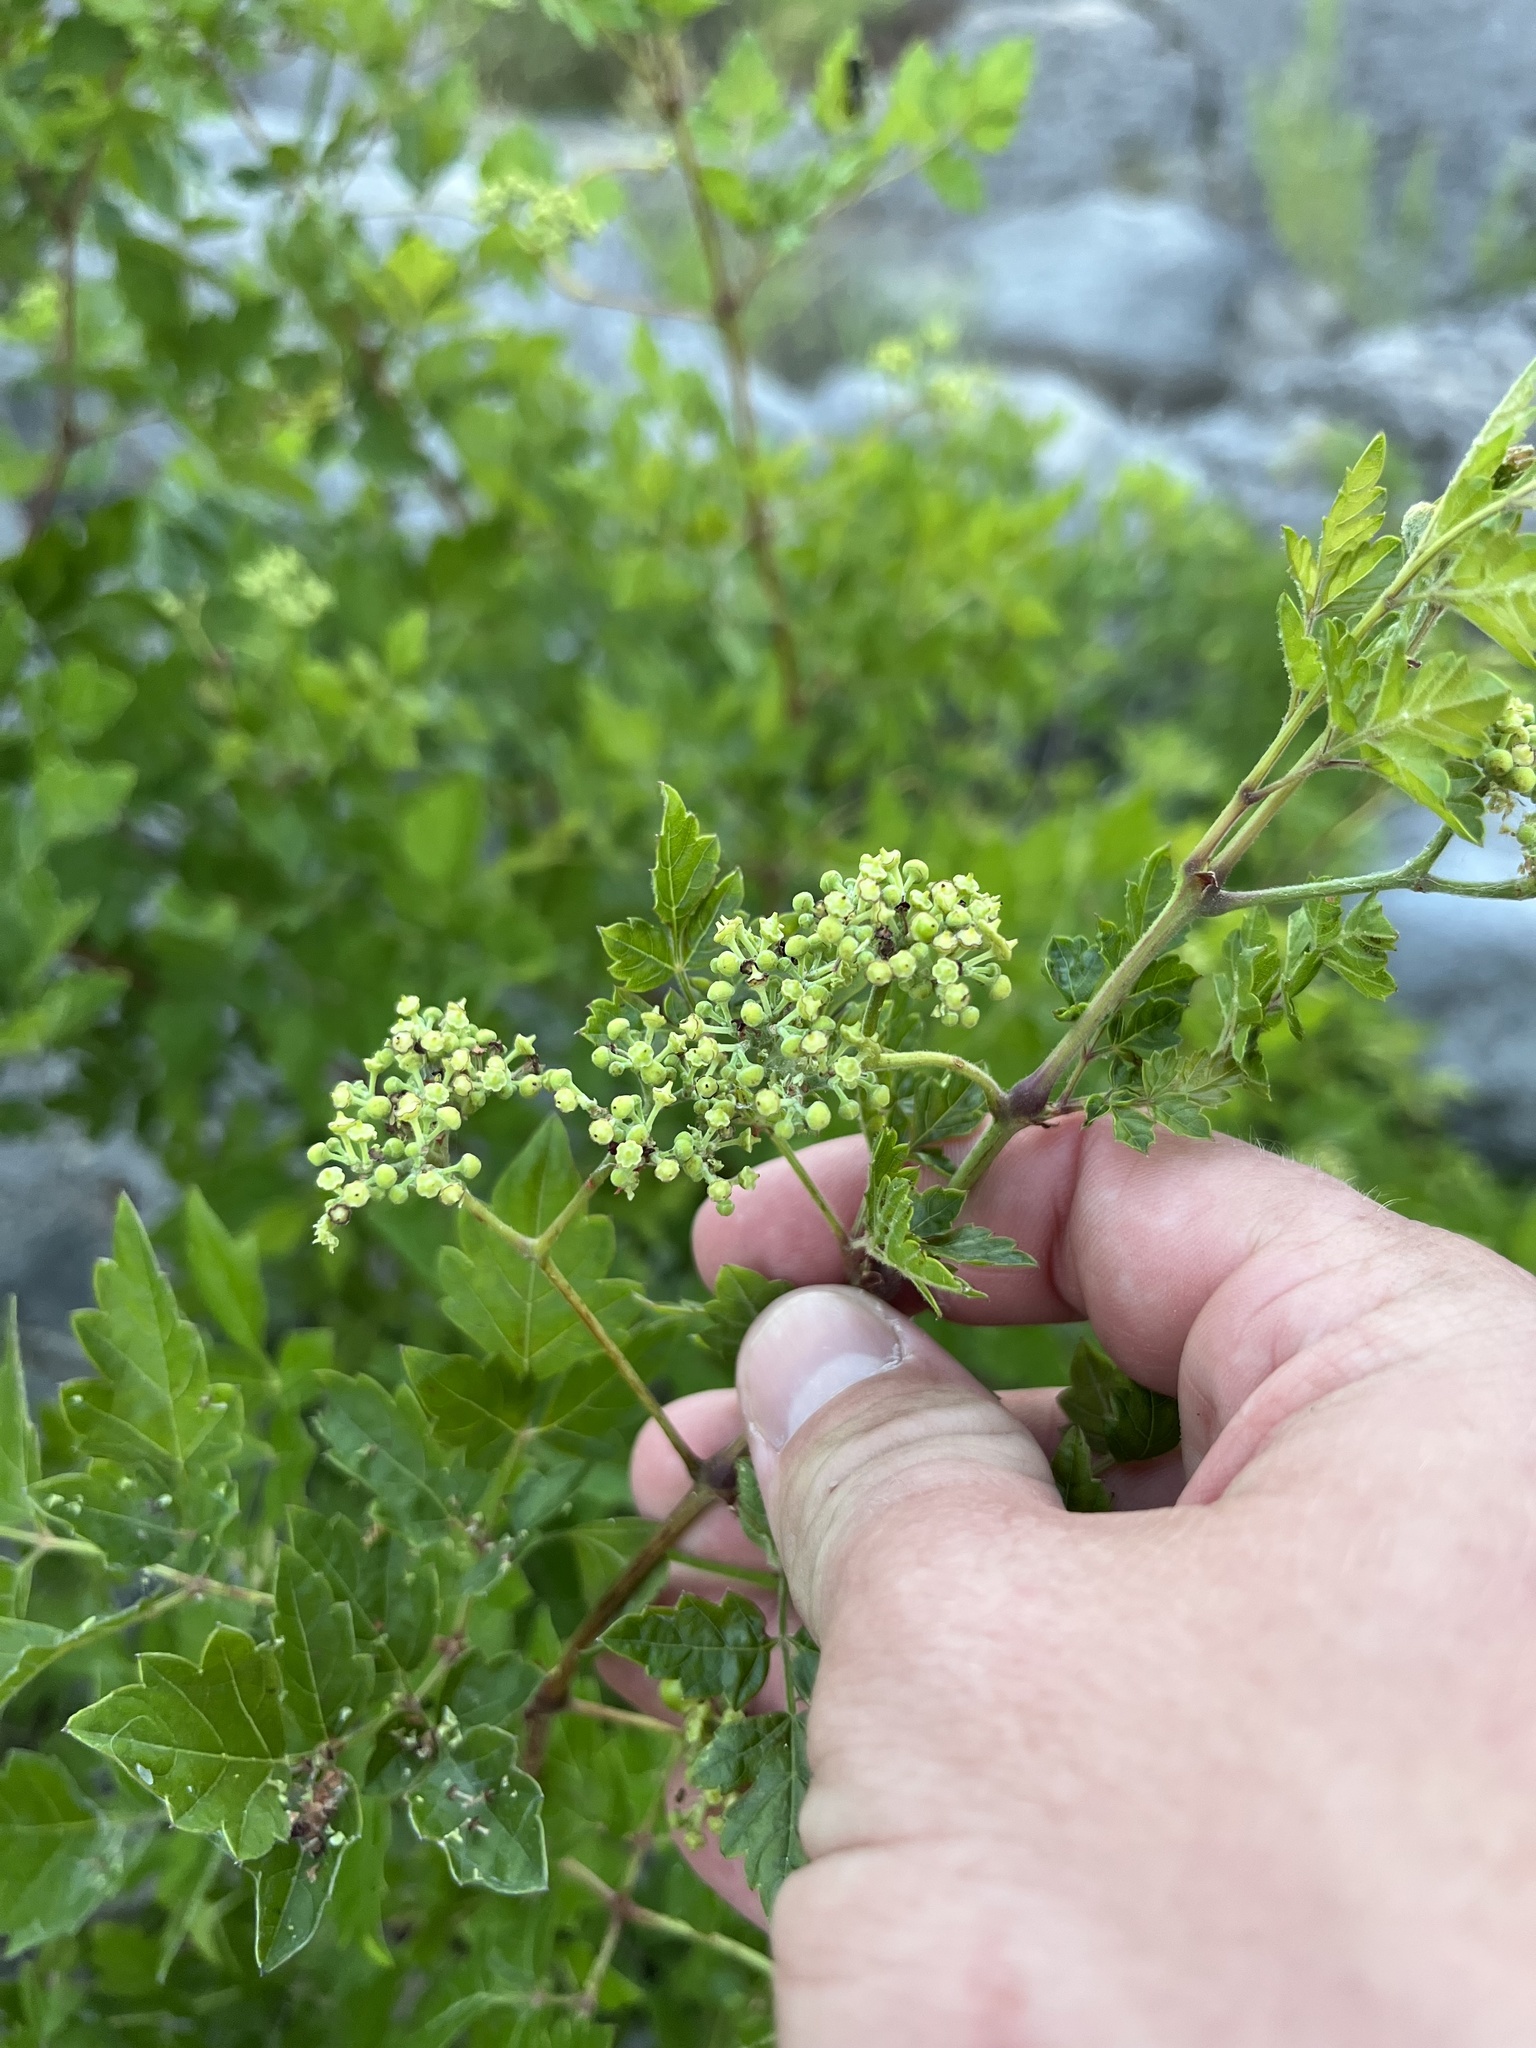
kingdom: Plantae
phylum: Tracheophyta
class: Magnoliopsida
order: Vitales
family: Vitaceae
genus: Nekemias
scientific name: Nekemias arborea
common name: Peppervine
